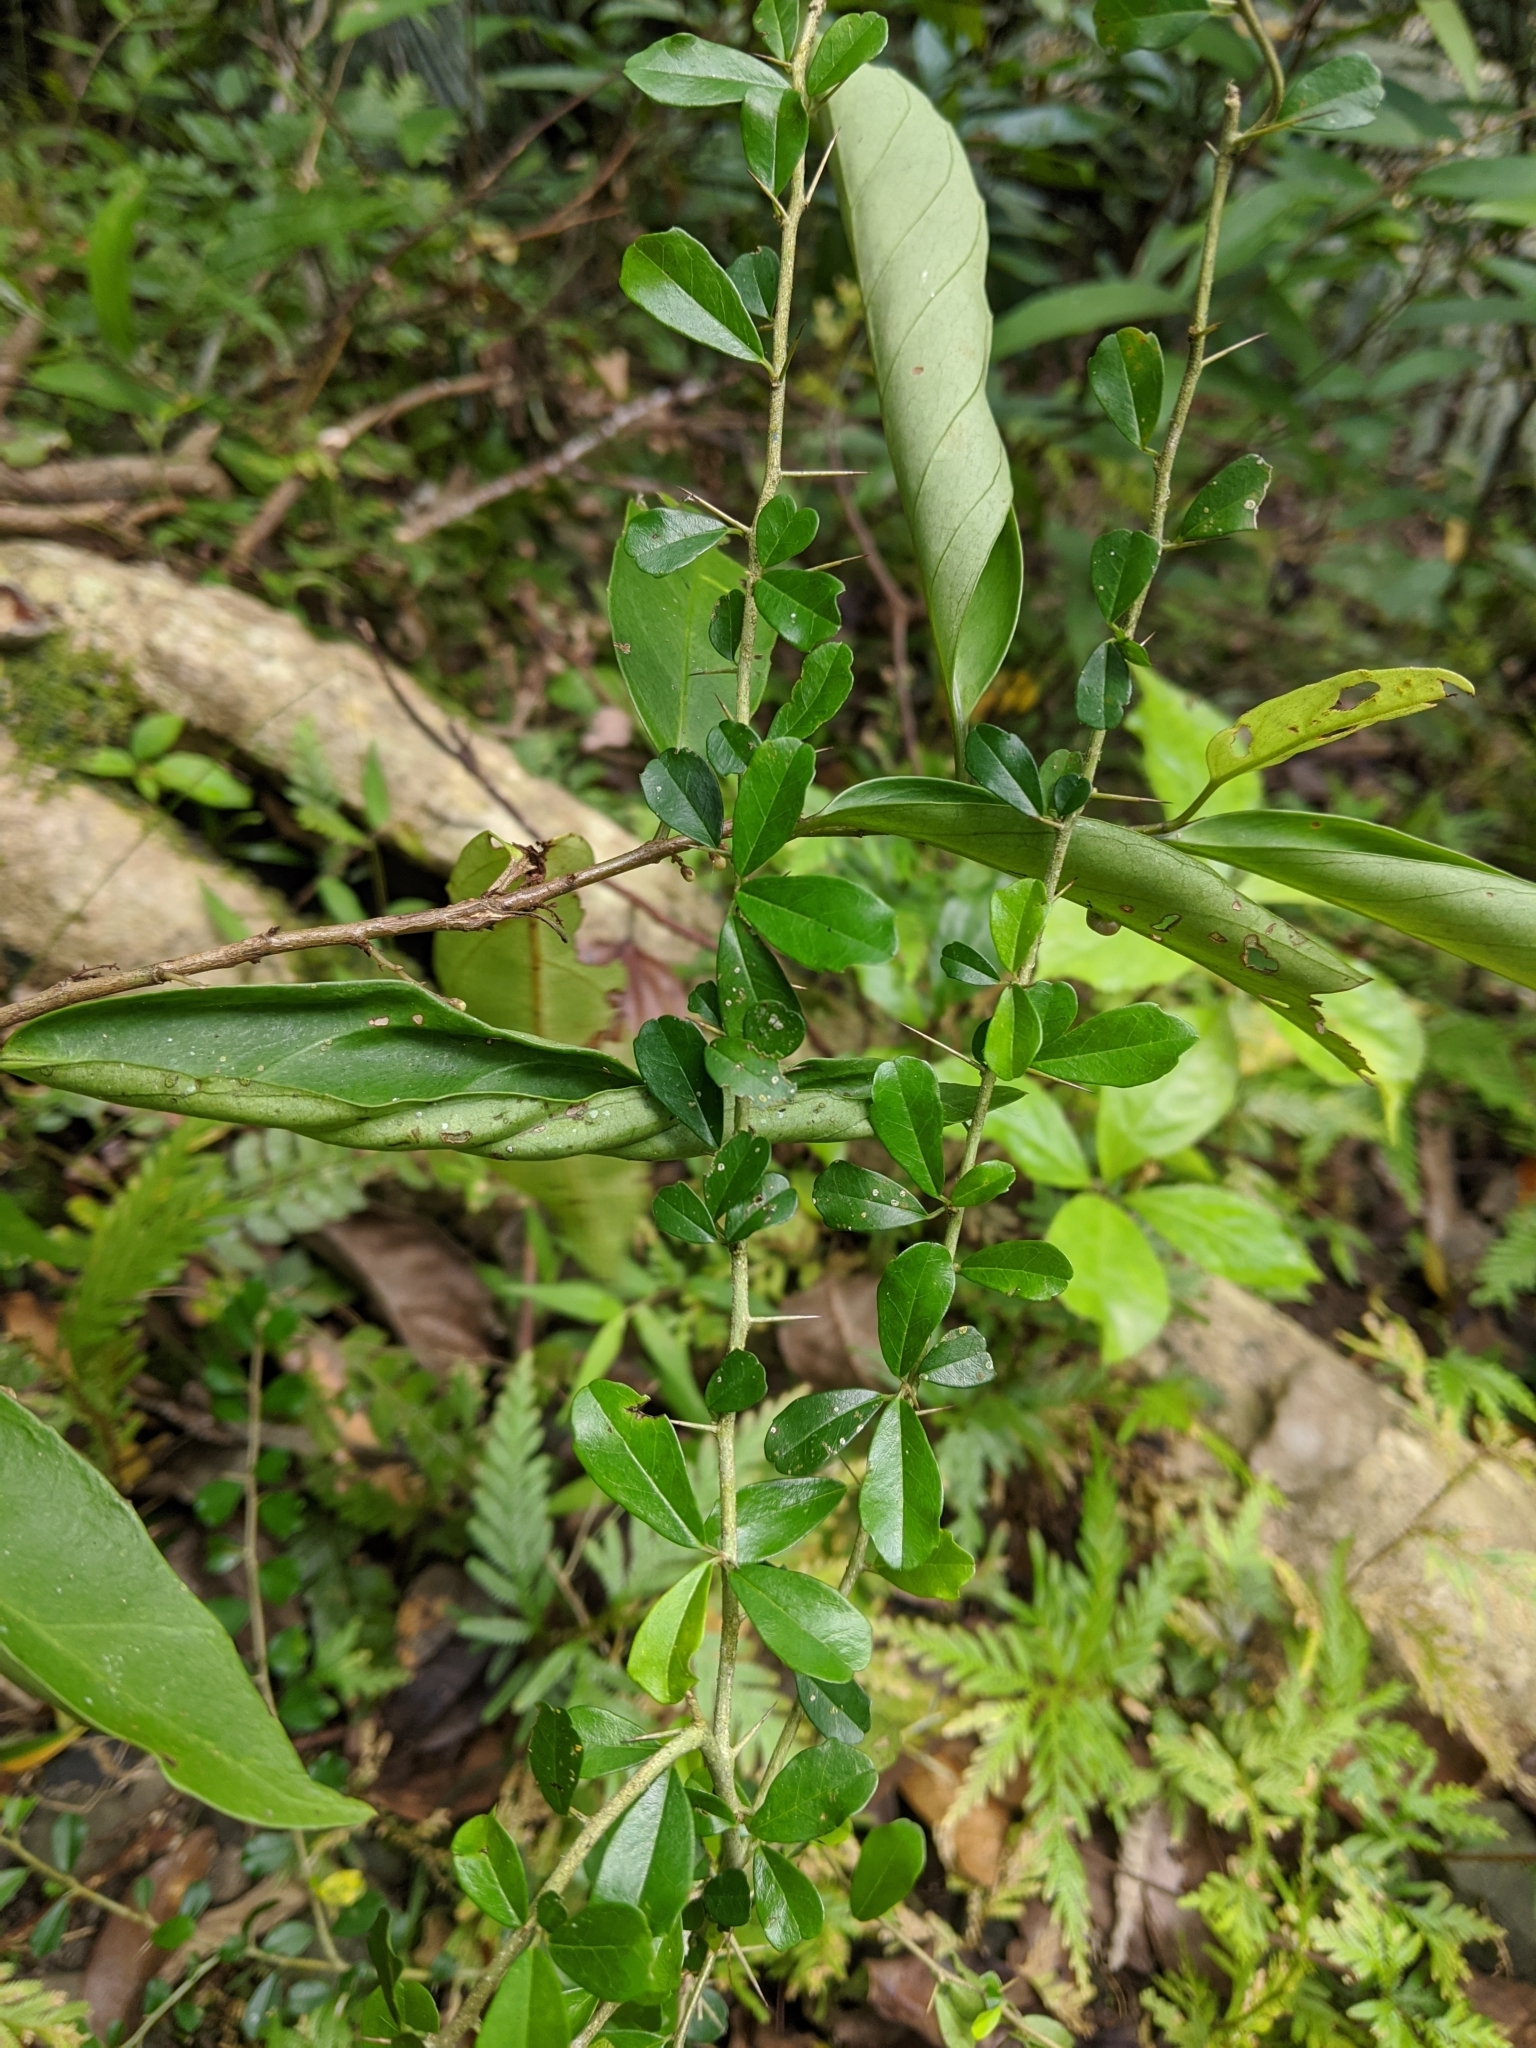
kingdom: Plantae
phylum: Tracheophyta
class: Magnoliopsida
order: Rosales
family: Moraceae
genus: Maclura
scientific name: Maclura cochinchinensis
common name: Cockspurthorn
